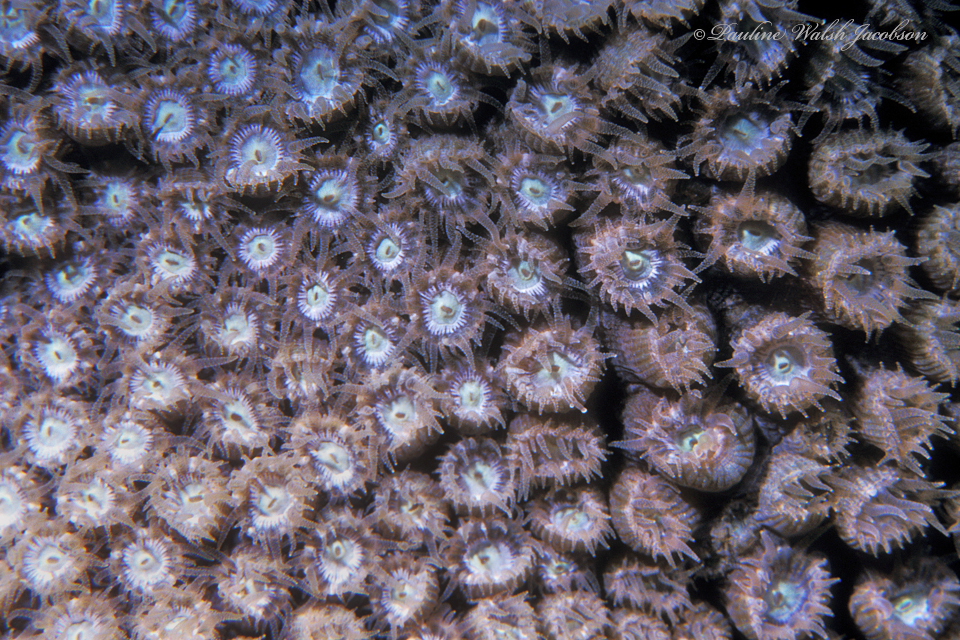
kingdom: Animalia
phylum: Cnidaria
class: Anthozoa
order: Scleractinia
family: Montastraeidae
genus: Montastraea
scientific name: Montastraea cavernosa
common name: Great star coral
